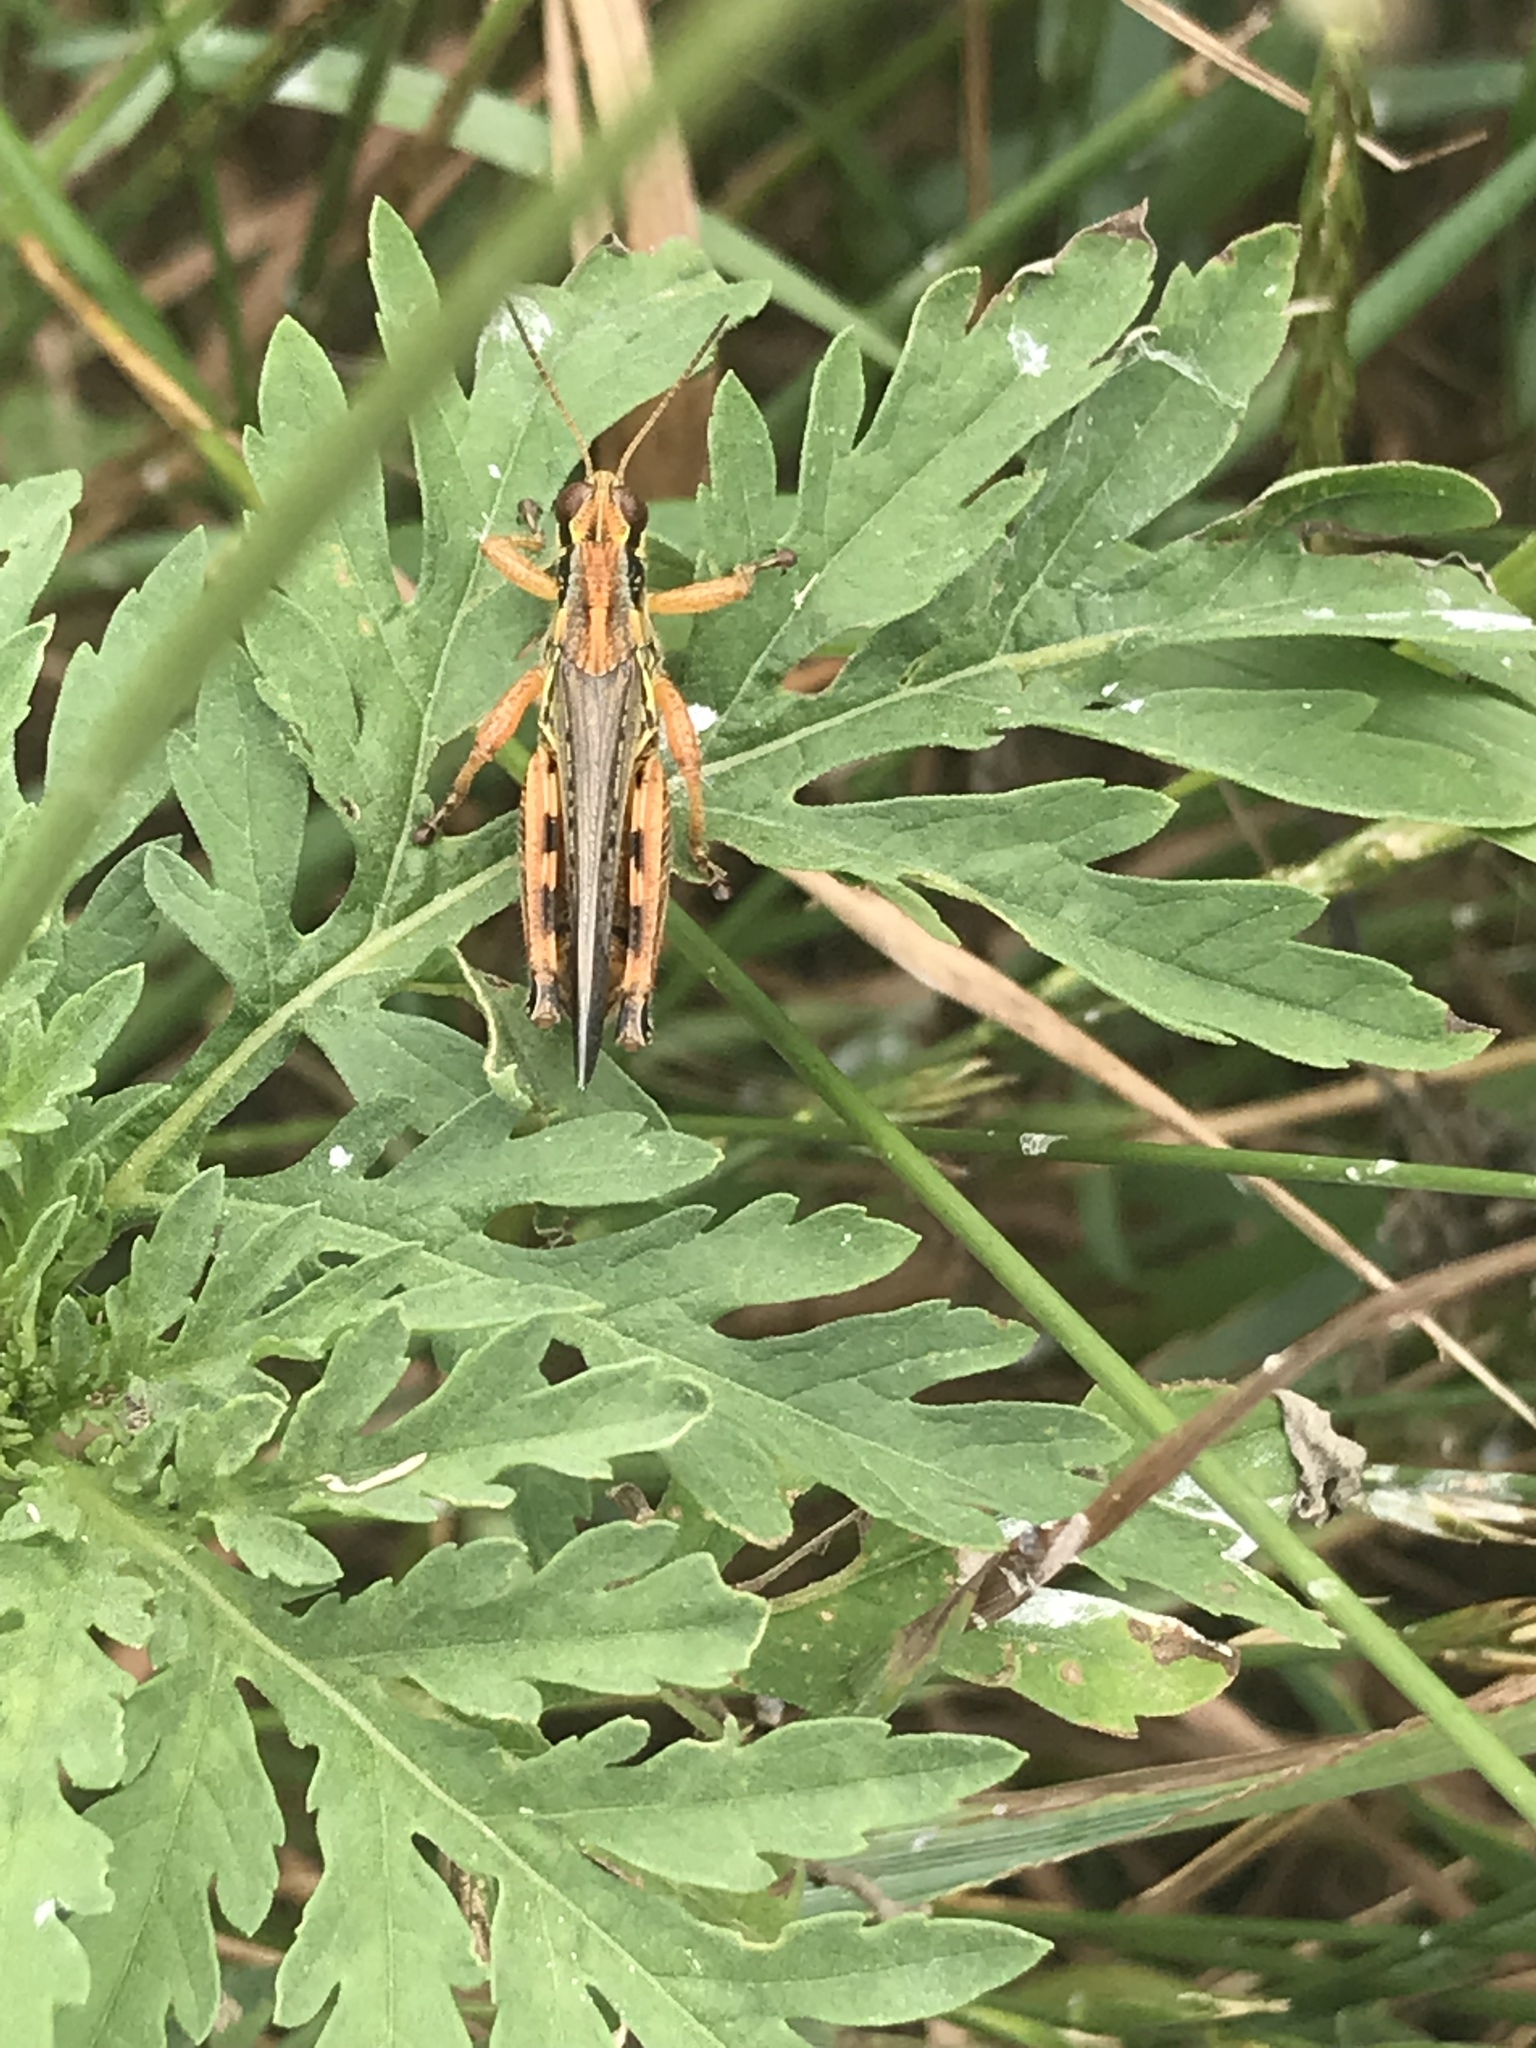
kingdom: Animalia
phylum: Arthropoda
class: Insecta
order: Orthoptera
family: Acrididae
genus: Melanoplus
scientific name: Melanoplus femurrubrum
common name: Red-legged grasshopper
